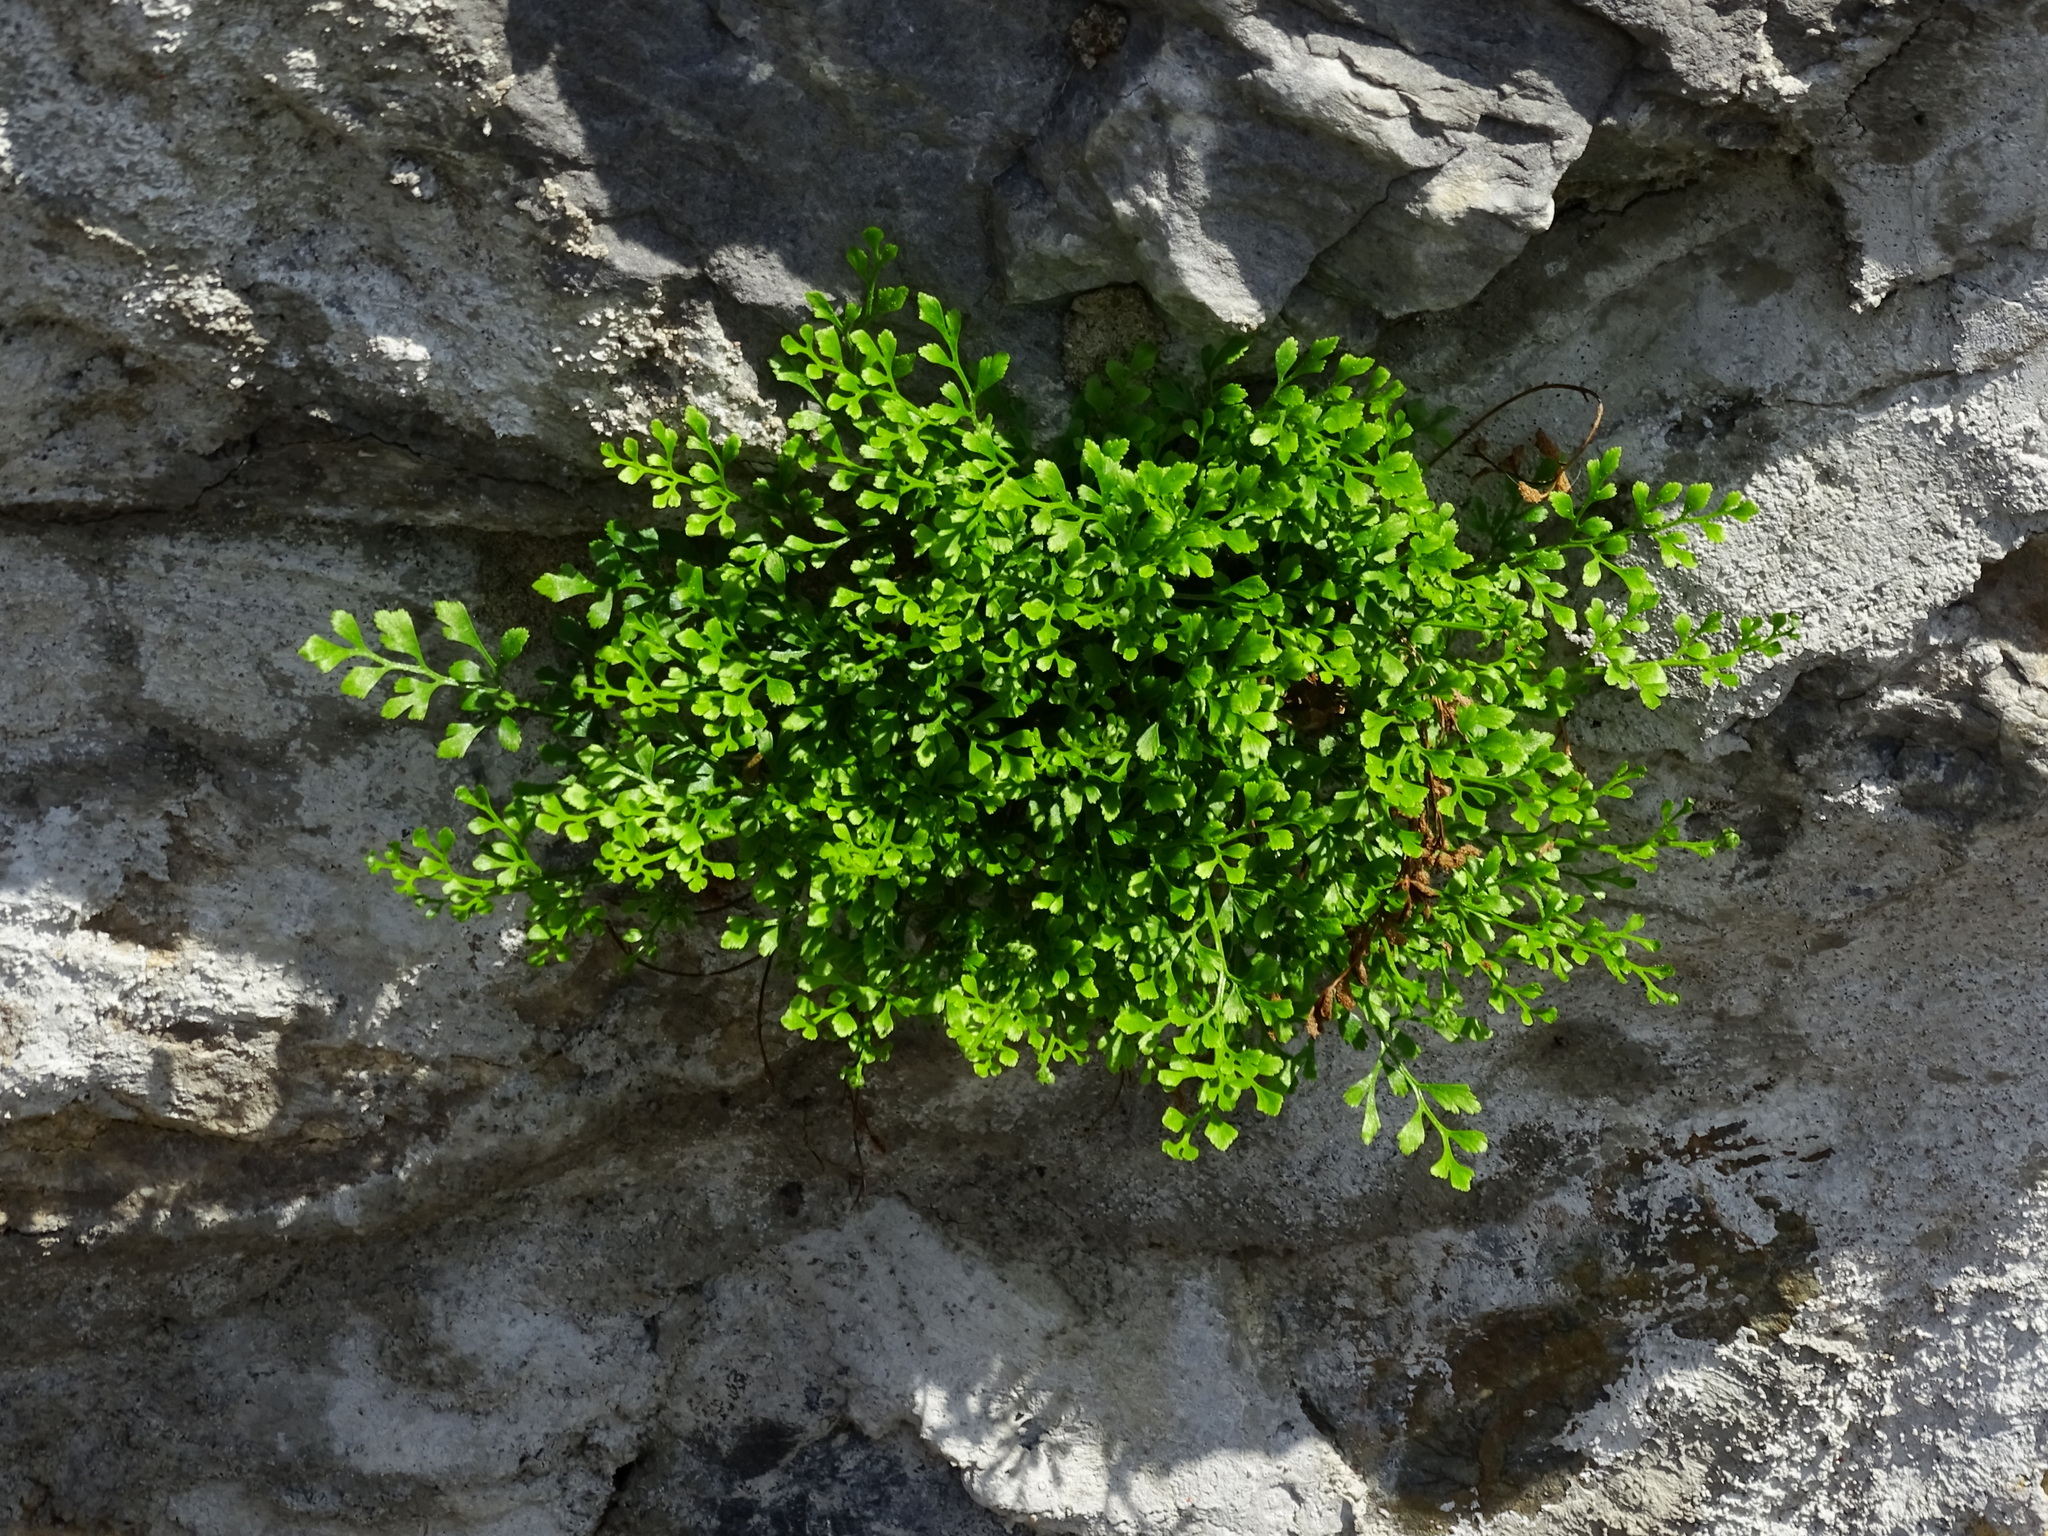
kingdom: Plantae
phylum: Tracheophyta
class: Polypodiopsida
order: Polypodiales
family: Aspleniaceae
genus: Asplenium
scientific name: Asplenium ruta-muraria
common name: Wall-rue
